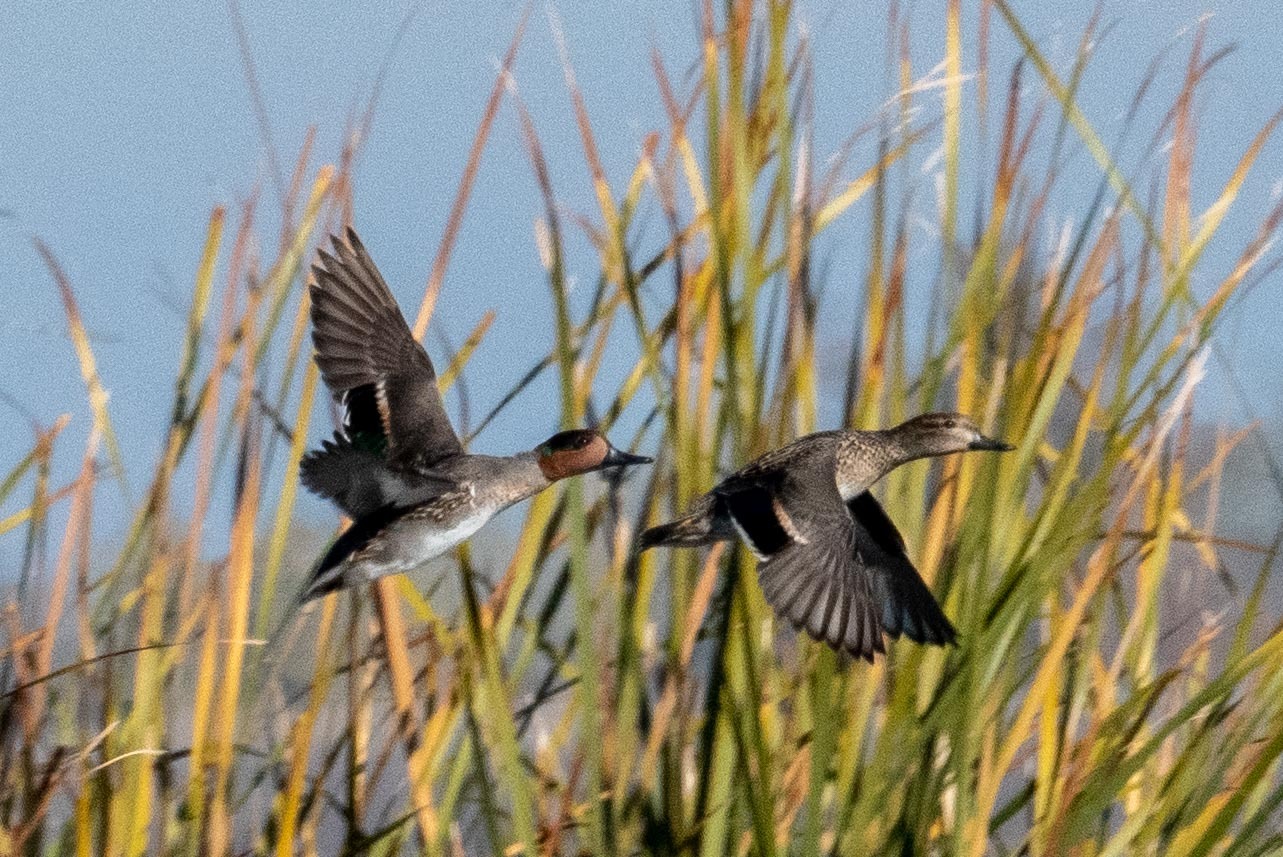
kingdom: Animalia
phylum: Chordata
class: Aves
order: Anseriformes
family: Anatidae
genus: Anas
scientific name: Anas crecca
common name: Eurasian teal
